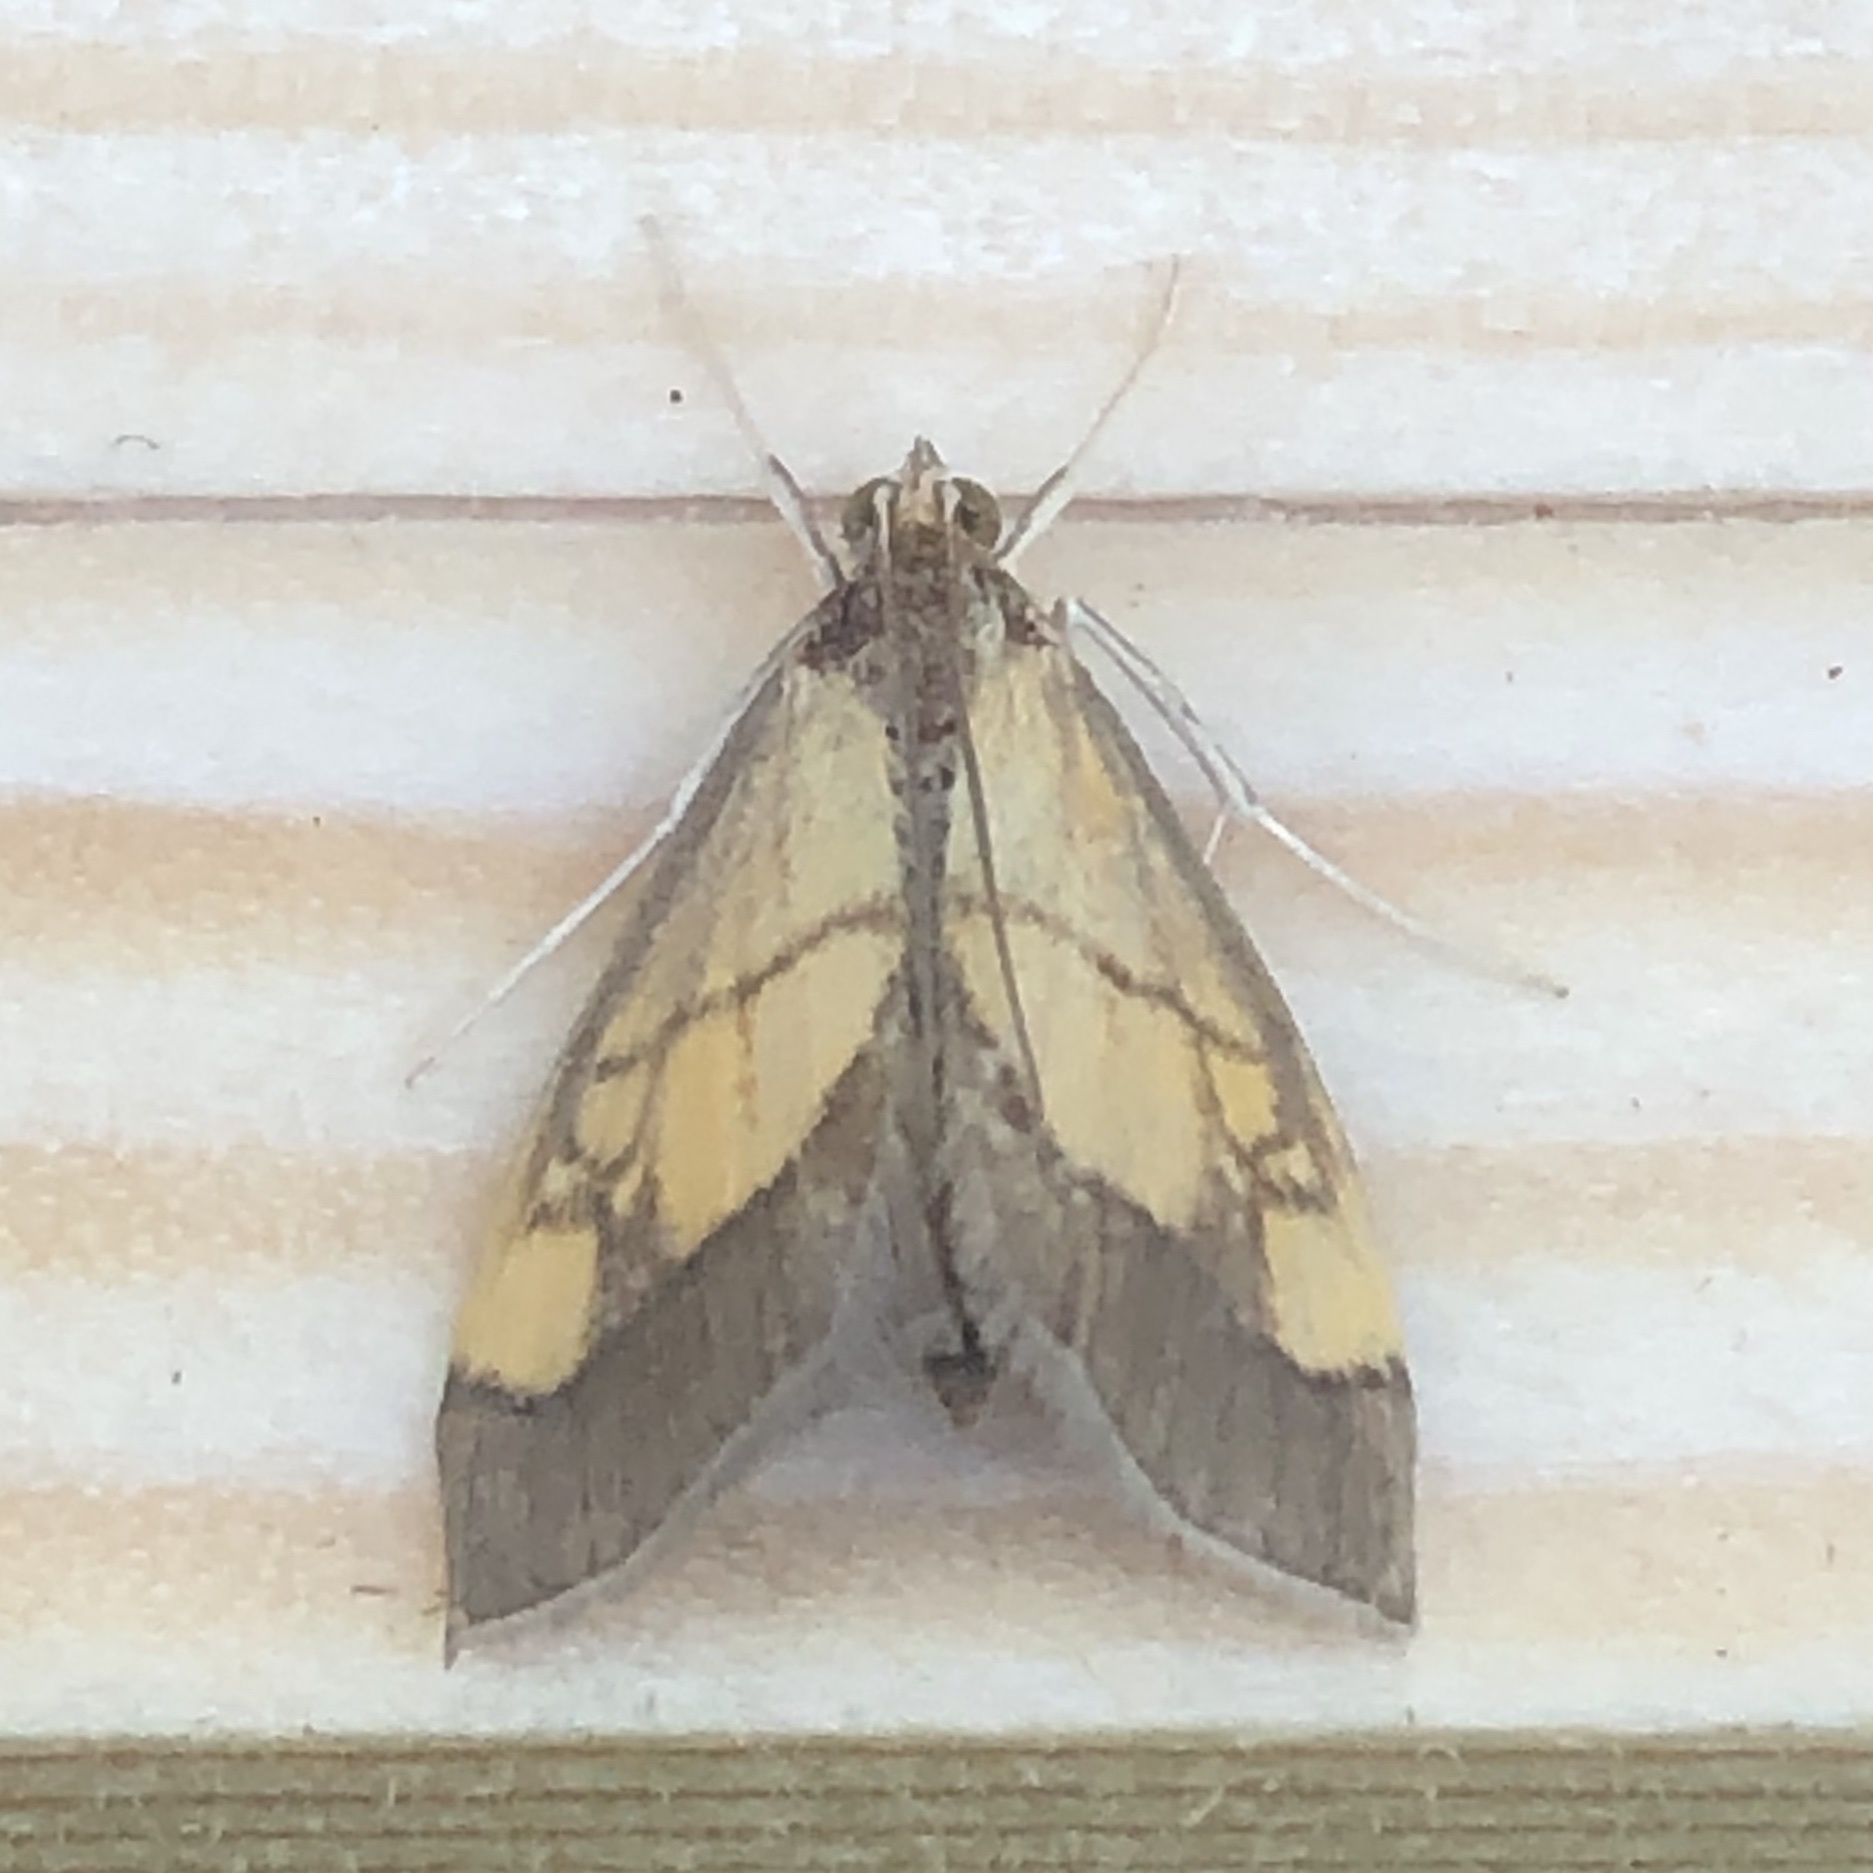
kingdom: Animalia
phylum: Arthropoda
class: Insecta
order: Lepidoptera
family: Crambidae
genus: Evergestis
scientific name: Evergestis limbata
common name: Dark bordered pearl
